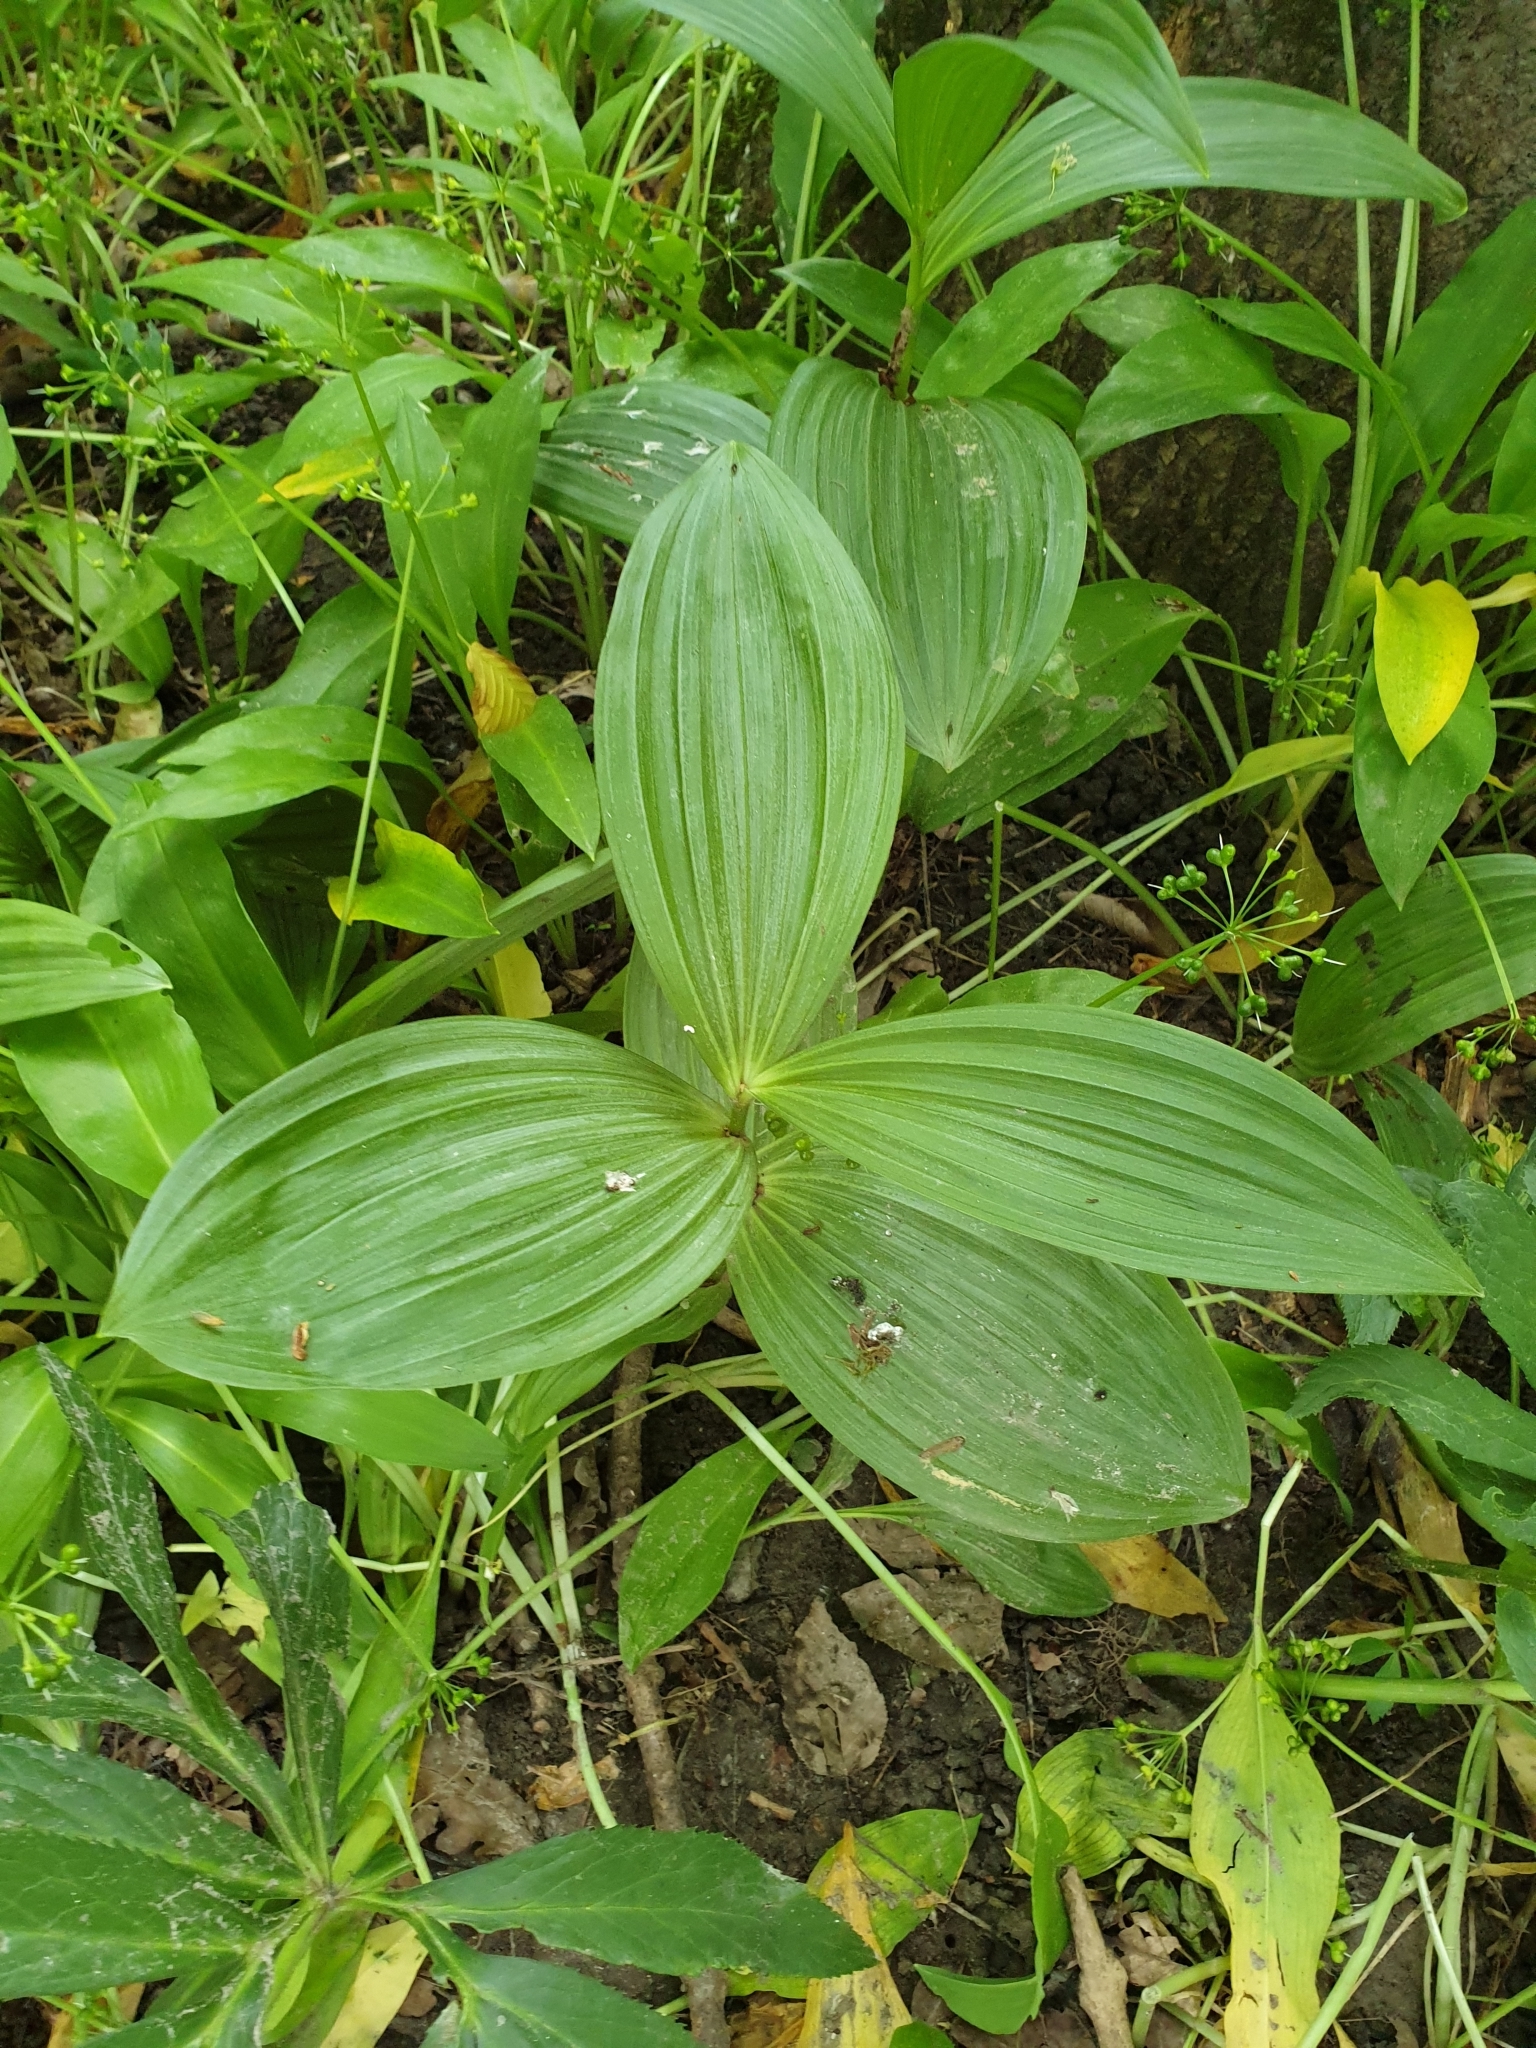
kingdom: Plantae
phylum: Tracheophyta
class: Liliopsida
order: Liliales
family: Melanthiaceae
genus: Veratrum
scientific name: Veratrum album
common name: White veratrum
